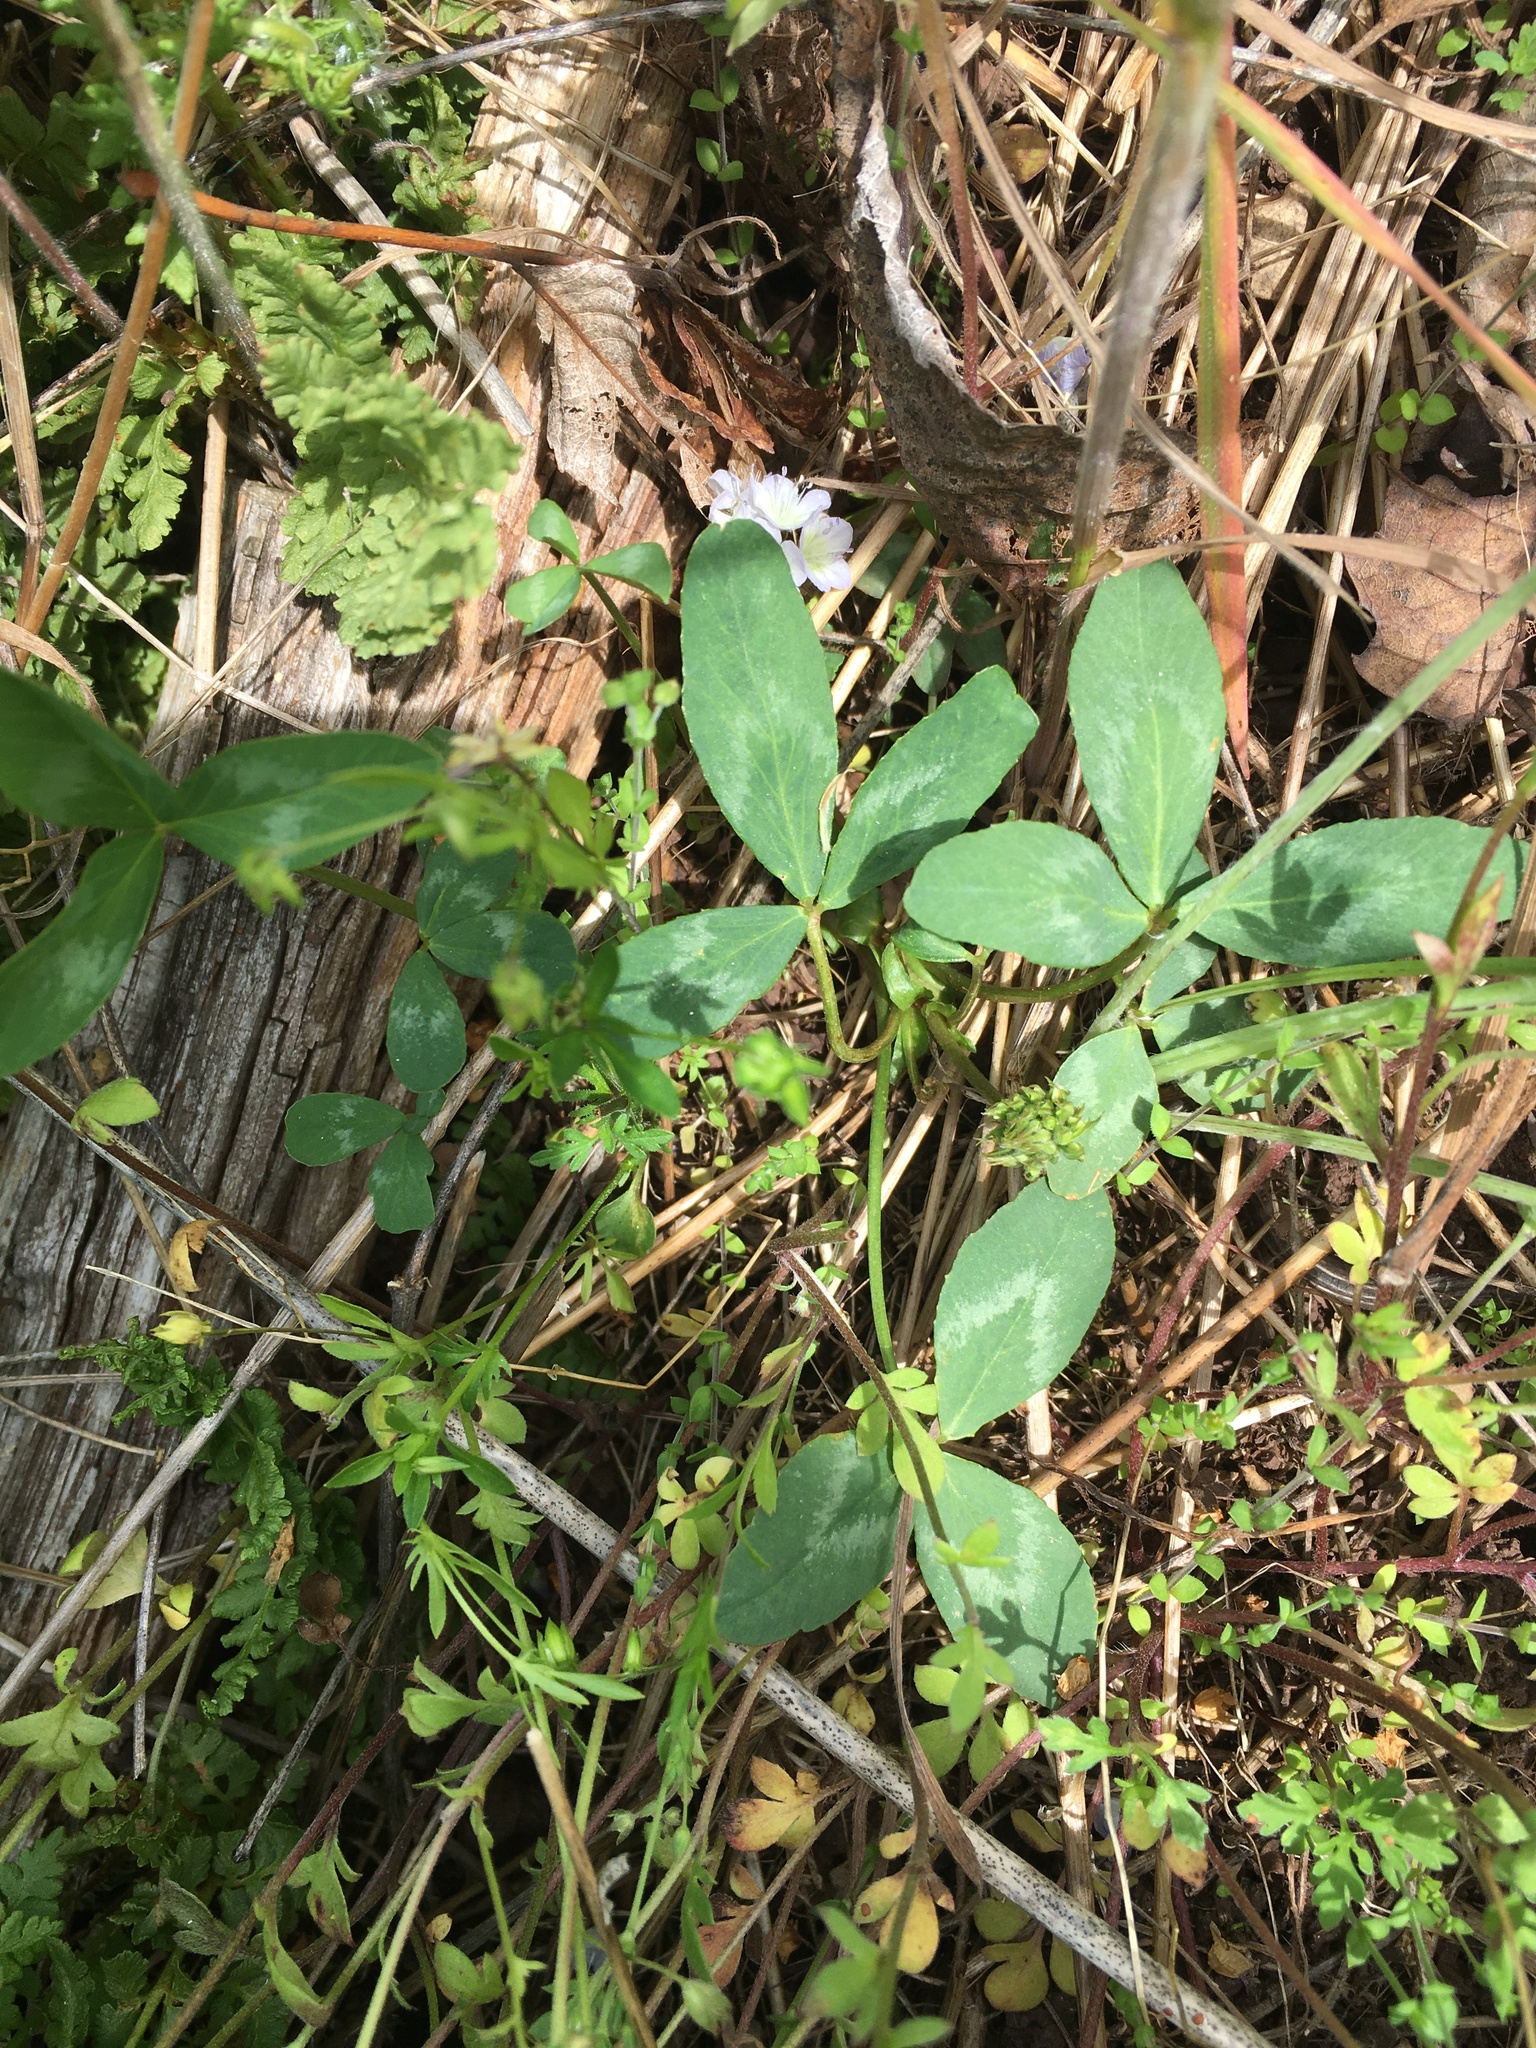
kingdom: Plantae
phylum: Tracheophyta
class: Magnoliopsida
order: Fabales
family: Fabaceae
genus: Trifolium
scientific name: Trifolium virginicum
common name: Kate's mountain clover
